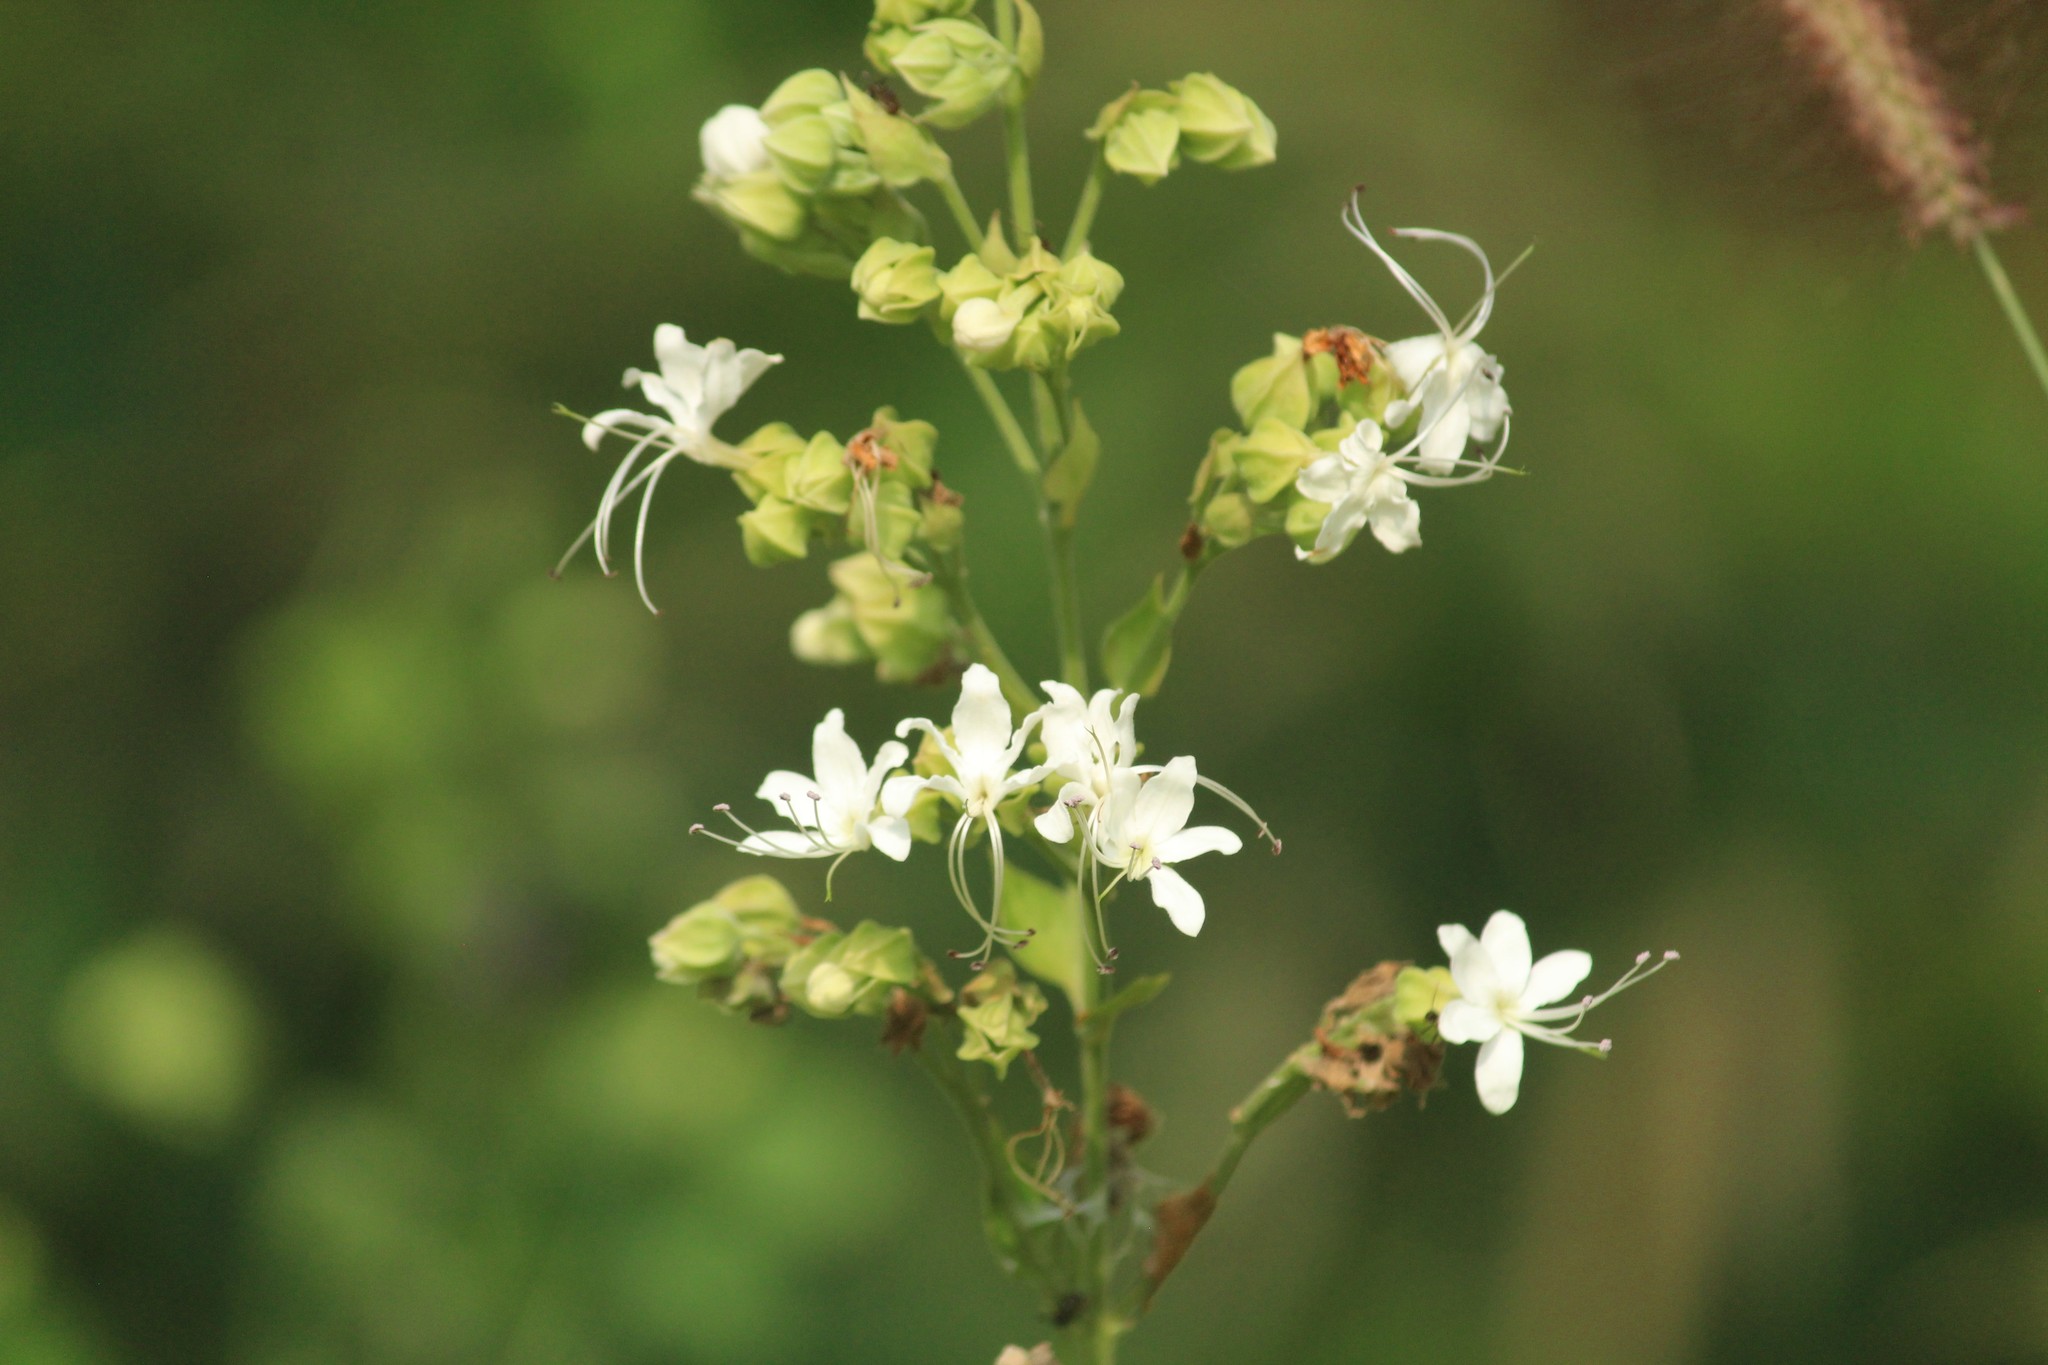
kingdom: Plantae
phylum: Tracheophyta
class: Magnoliopsida
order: Lamiales
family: Lamiaceae
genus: Clerodendrum
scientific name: Clerodendrum infortunatum
